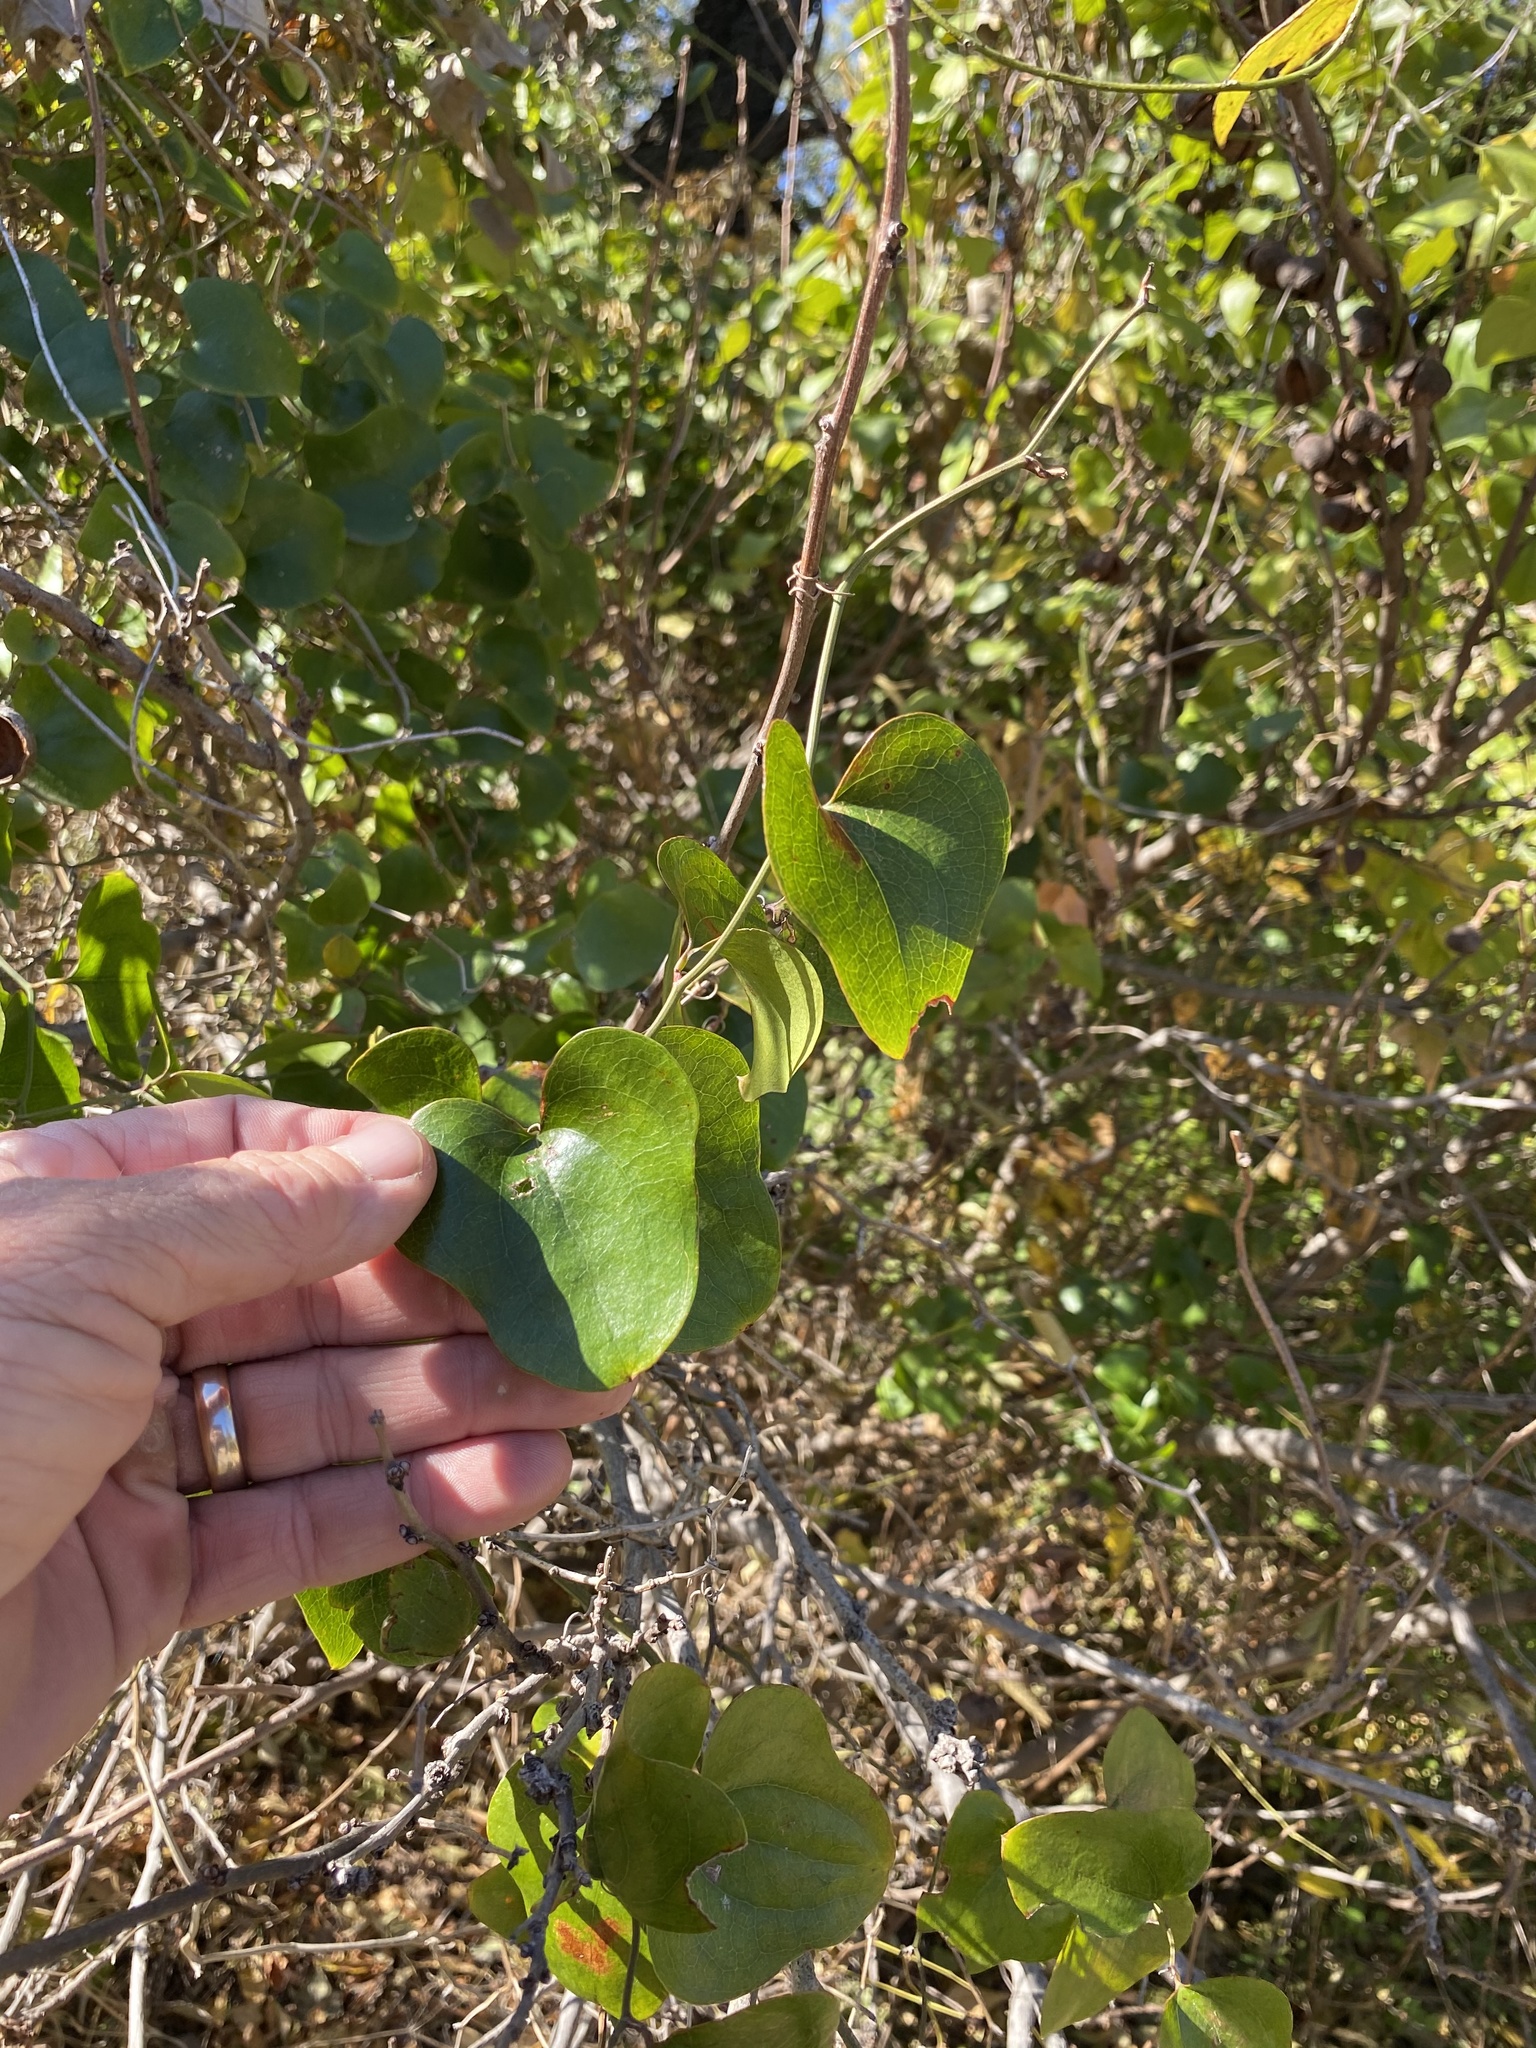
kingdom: Plantae
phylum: Tracheophyta
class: Liliopsida
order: Liliales
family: Smilacaceae
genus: Smilax
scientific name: Smilax bona-nox
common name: Catbrier
